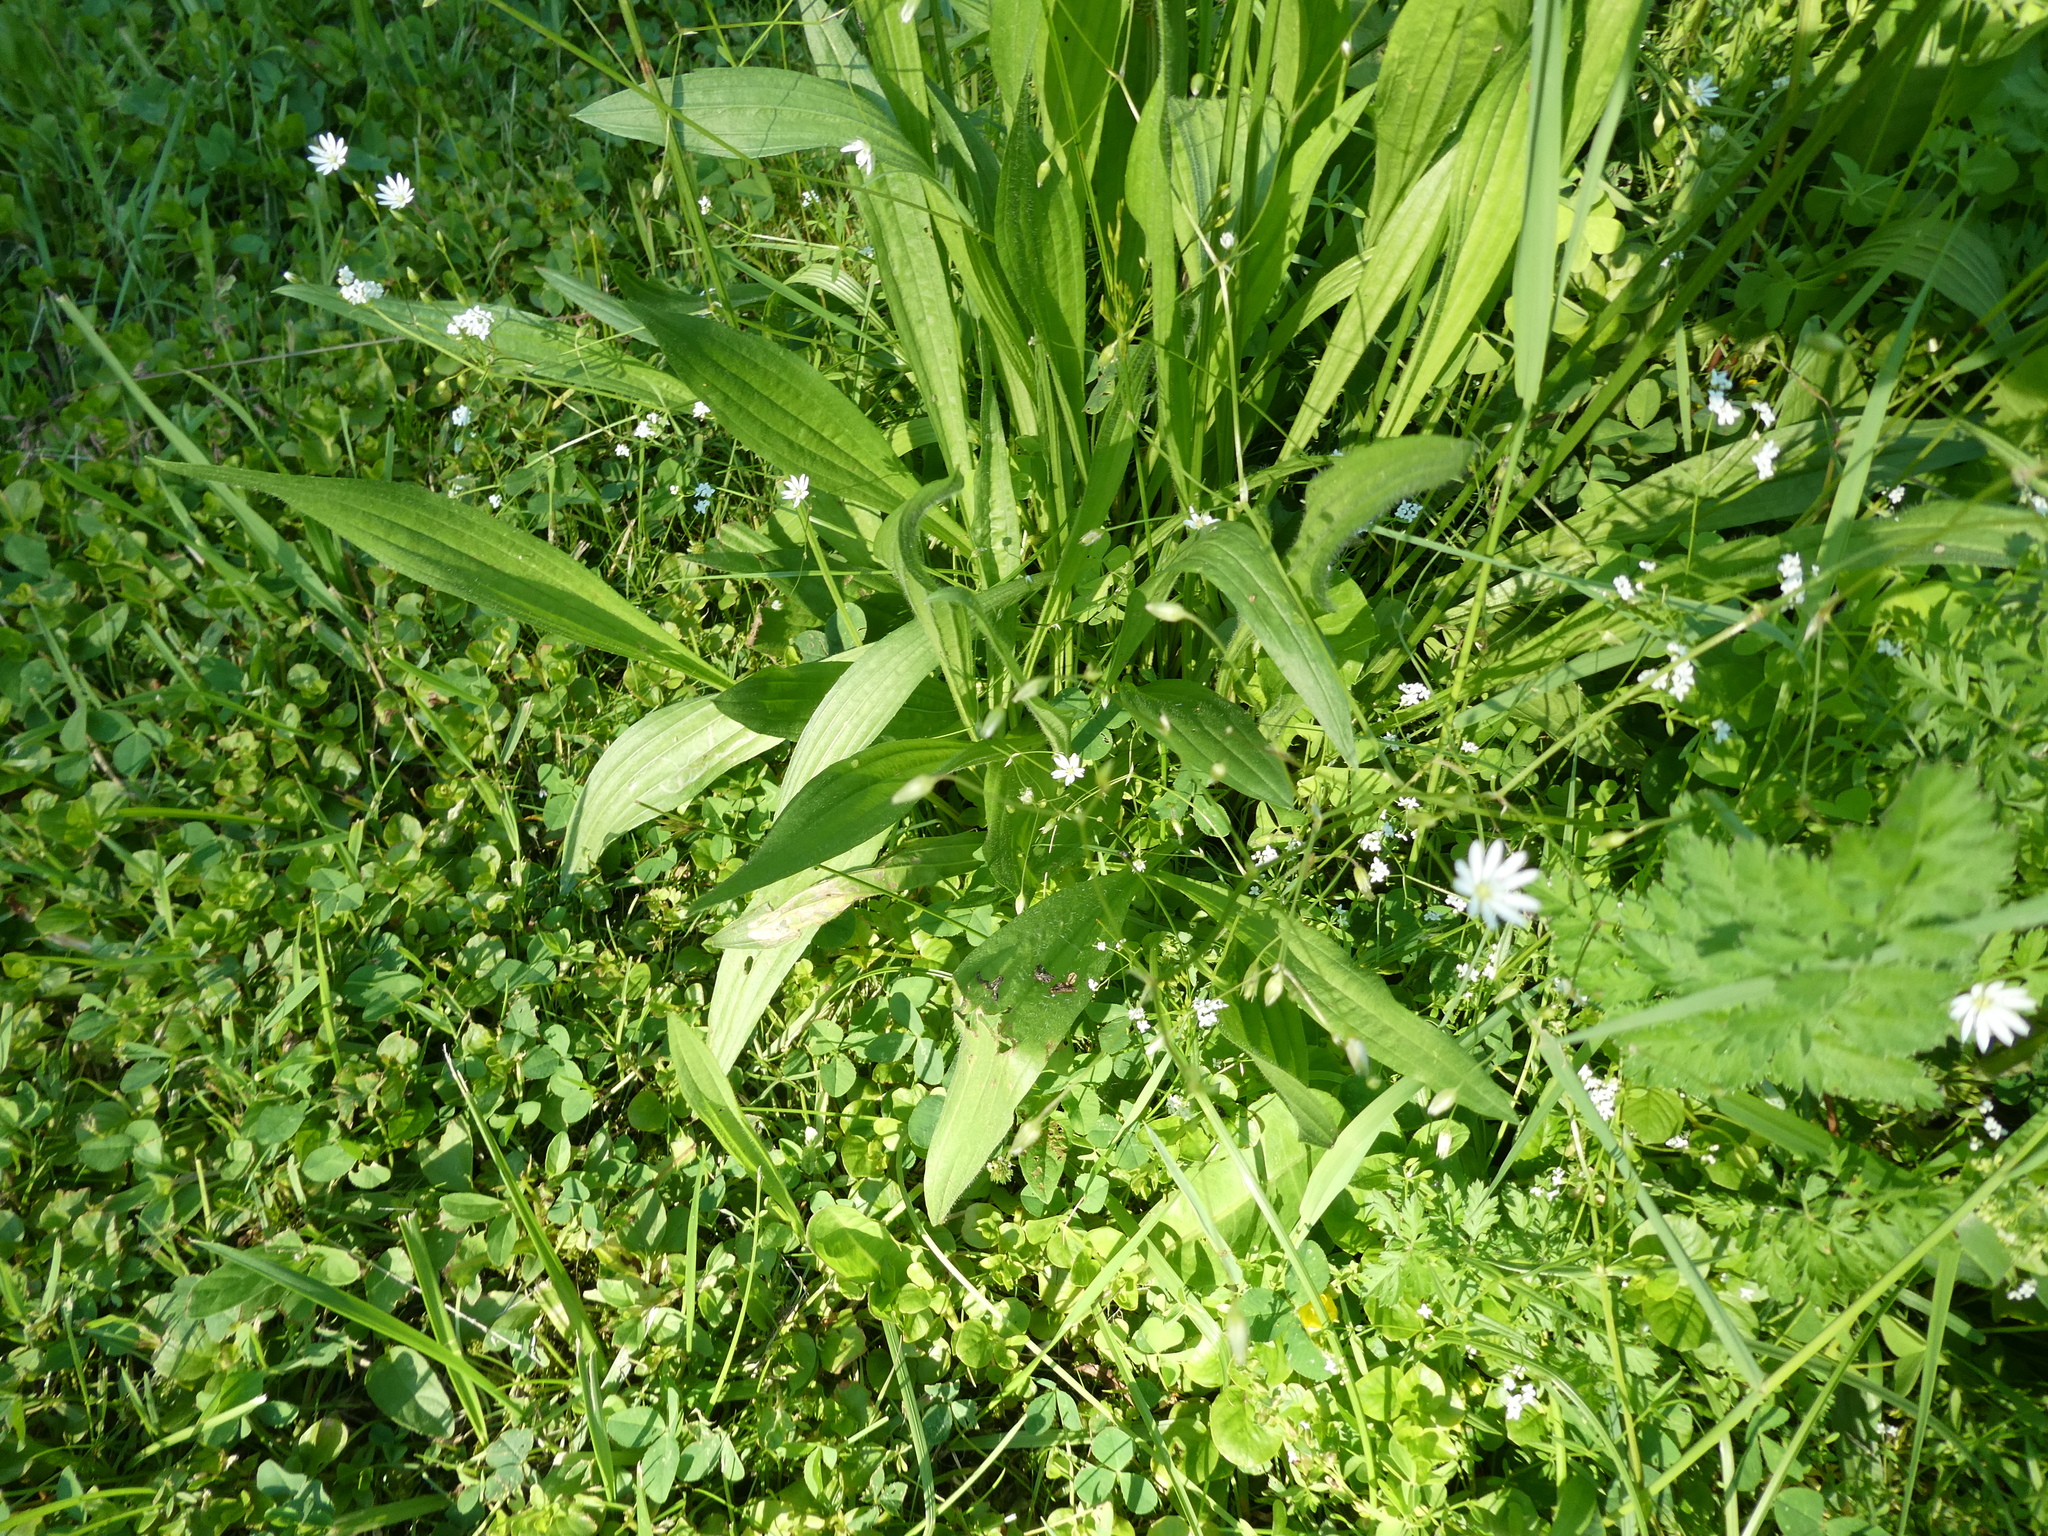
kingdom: Plantae
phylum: Tracheophyta
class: Magnoliopsida
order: Lamiales
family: Plantaginaceae
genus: Plantago
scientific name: Plantago lanceolata
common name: Ribwort plantain
